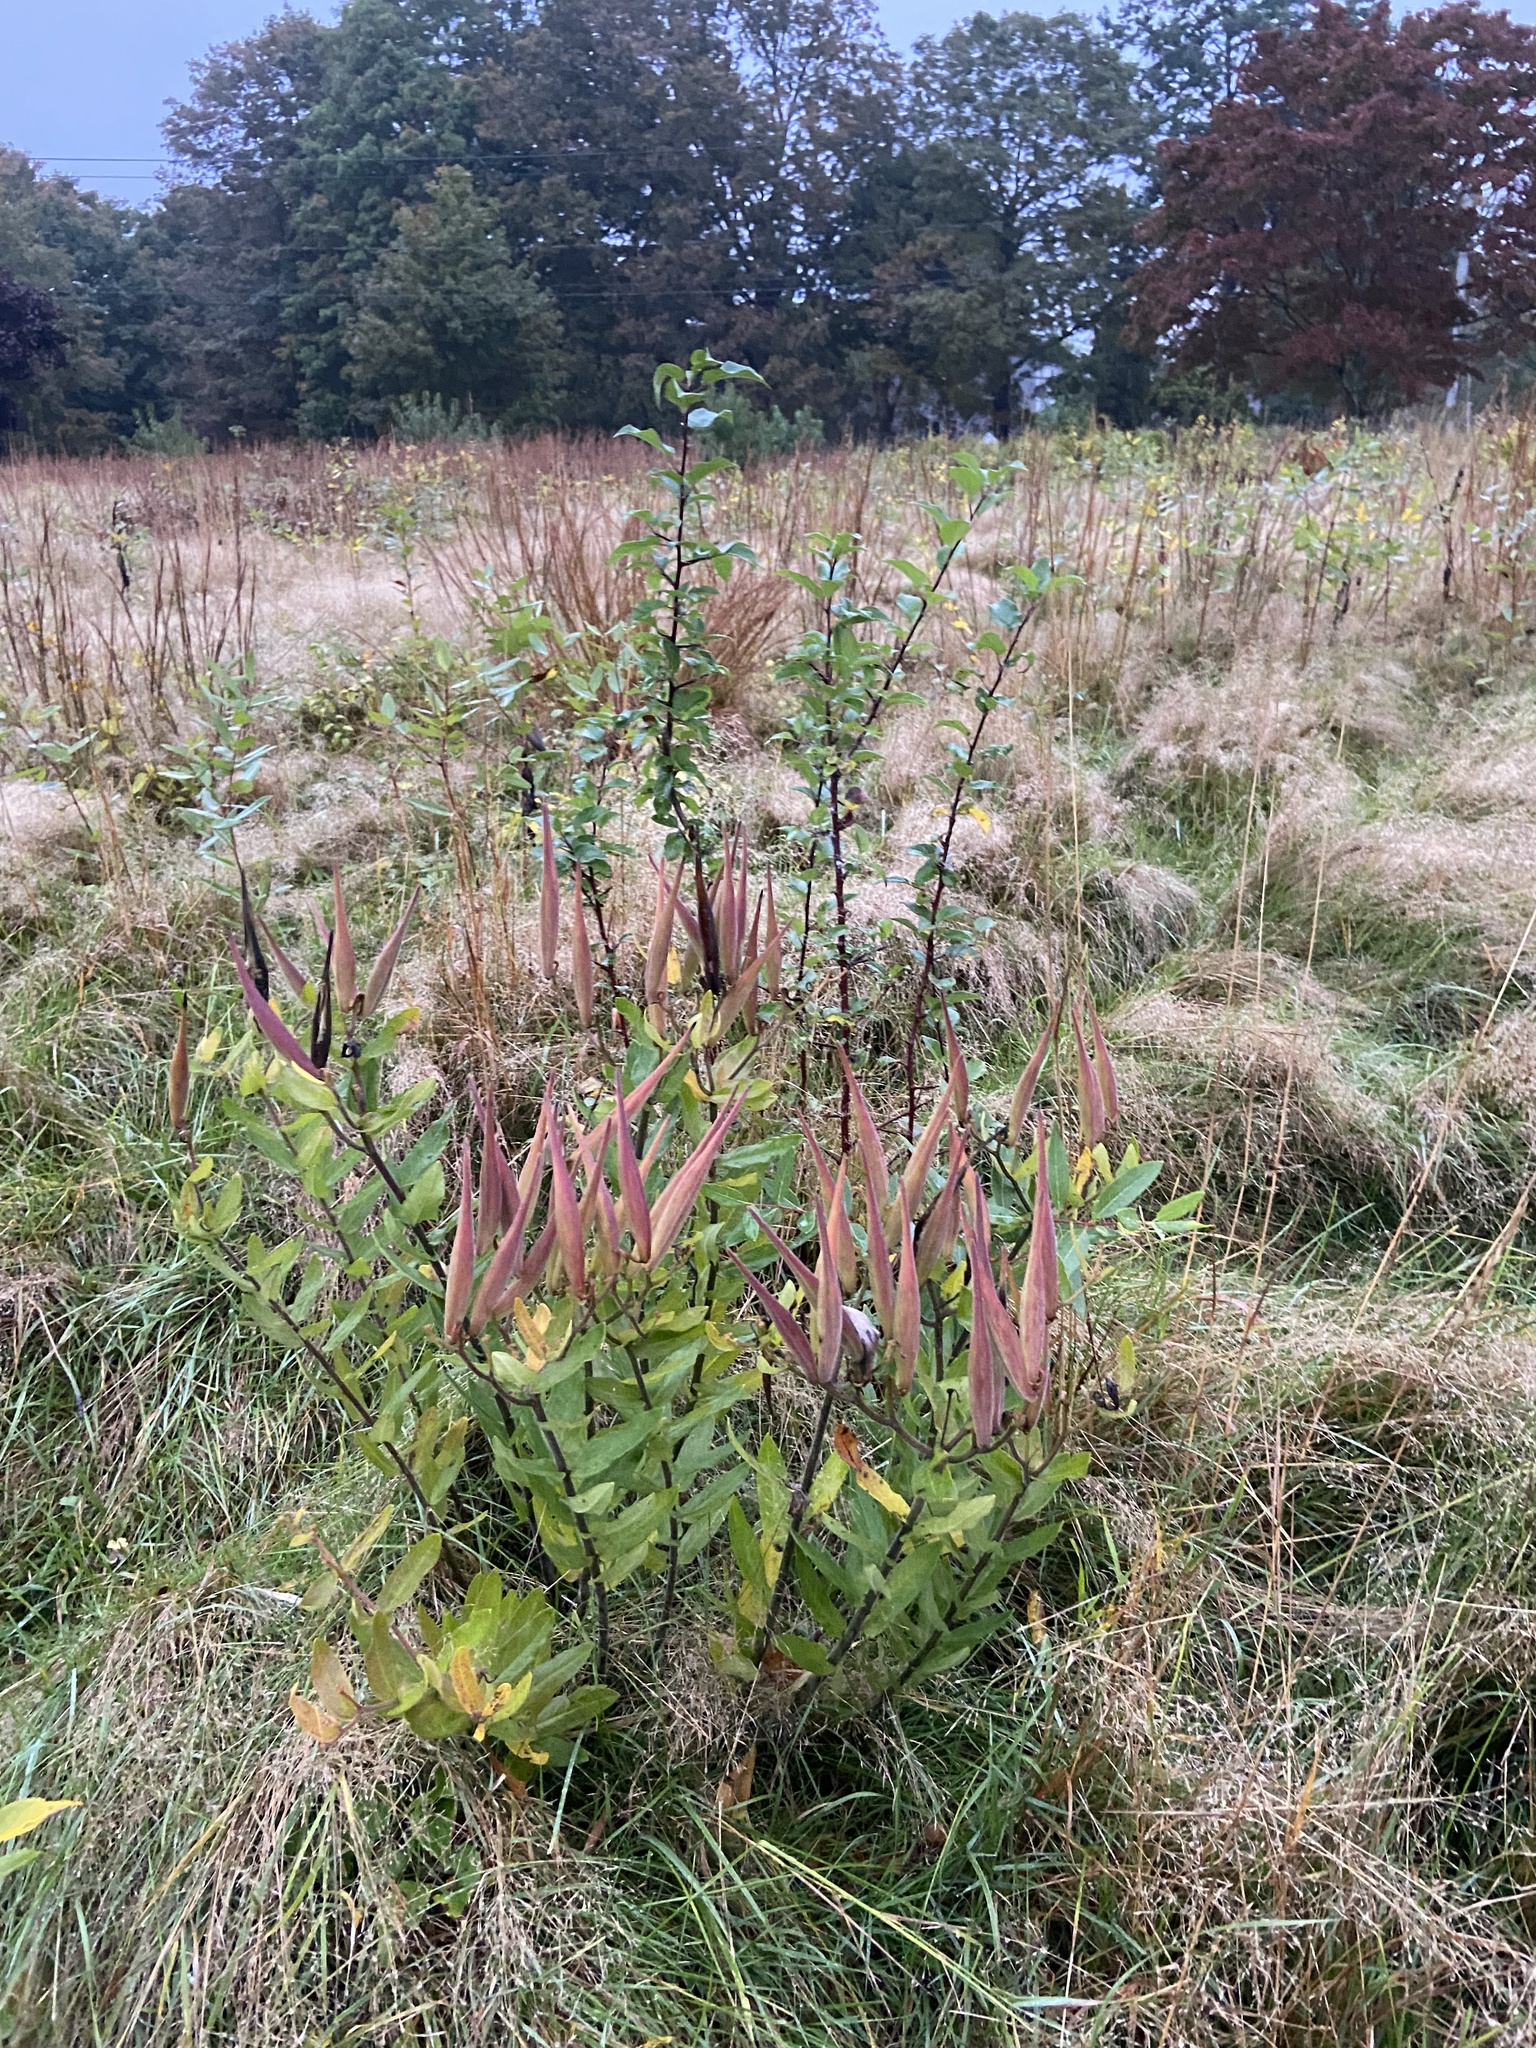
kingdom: Plantae
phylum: Tracheophyta
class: Magnoliopsida
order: Gentianales
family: Apocynaceae
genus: Asclepias
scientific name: Asclepias tuberosa
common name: Butterfly milkweed
